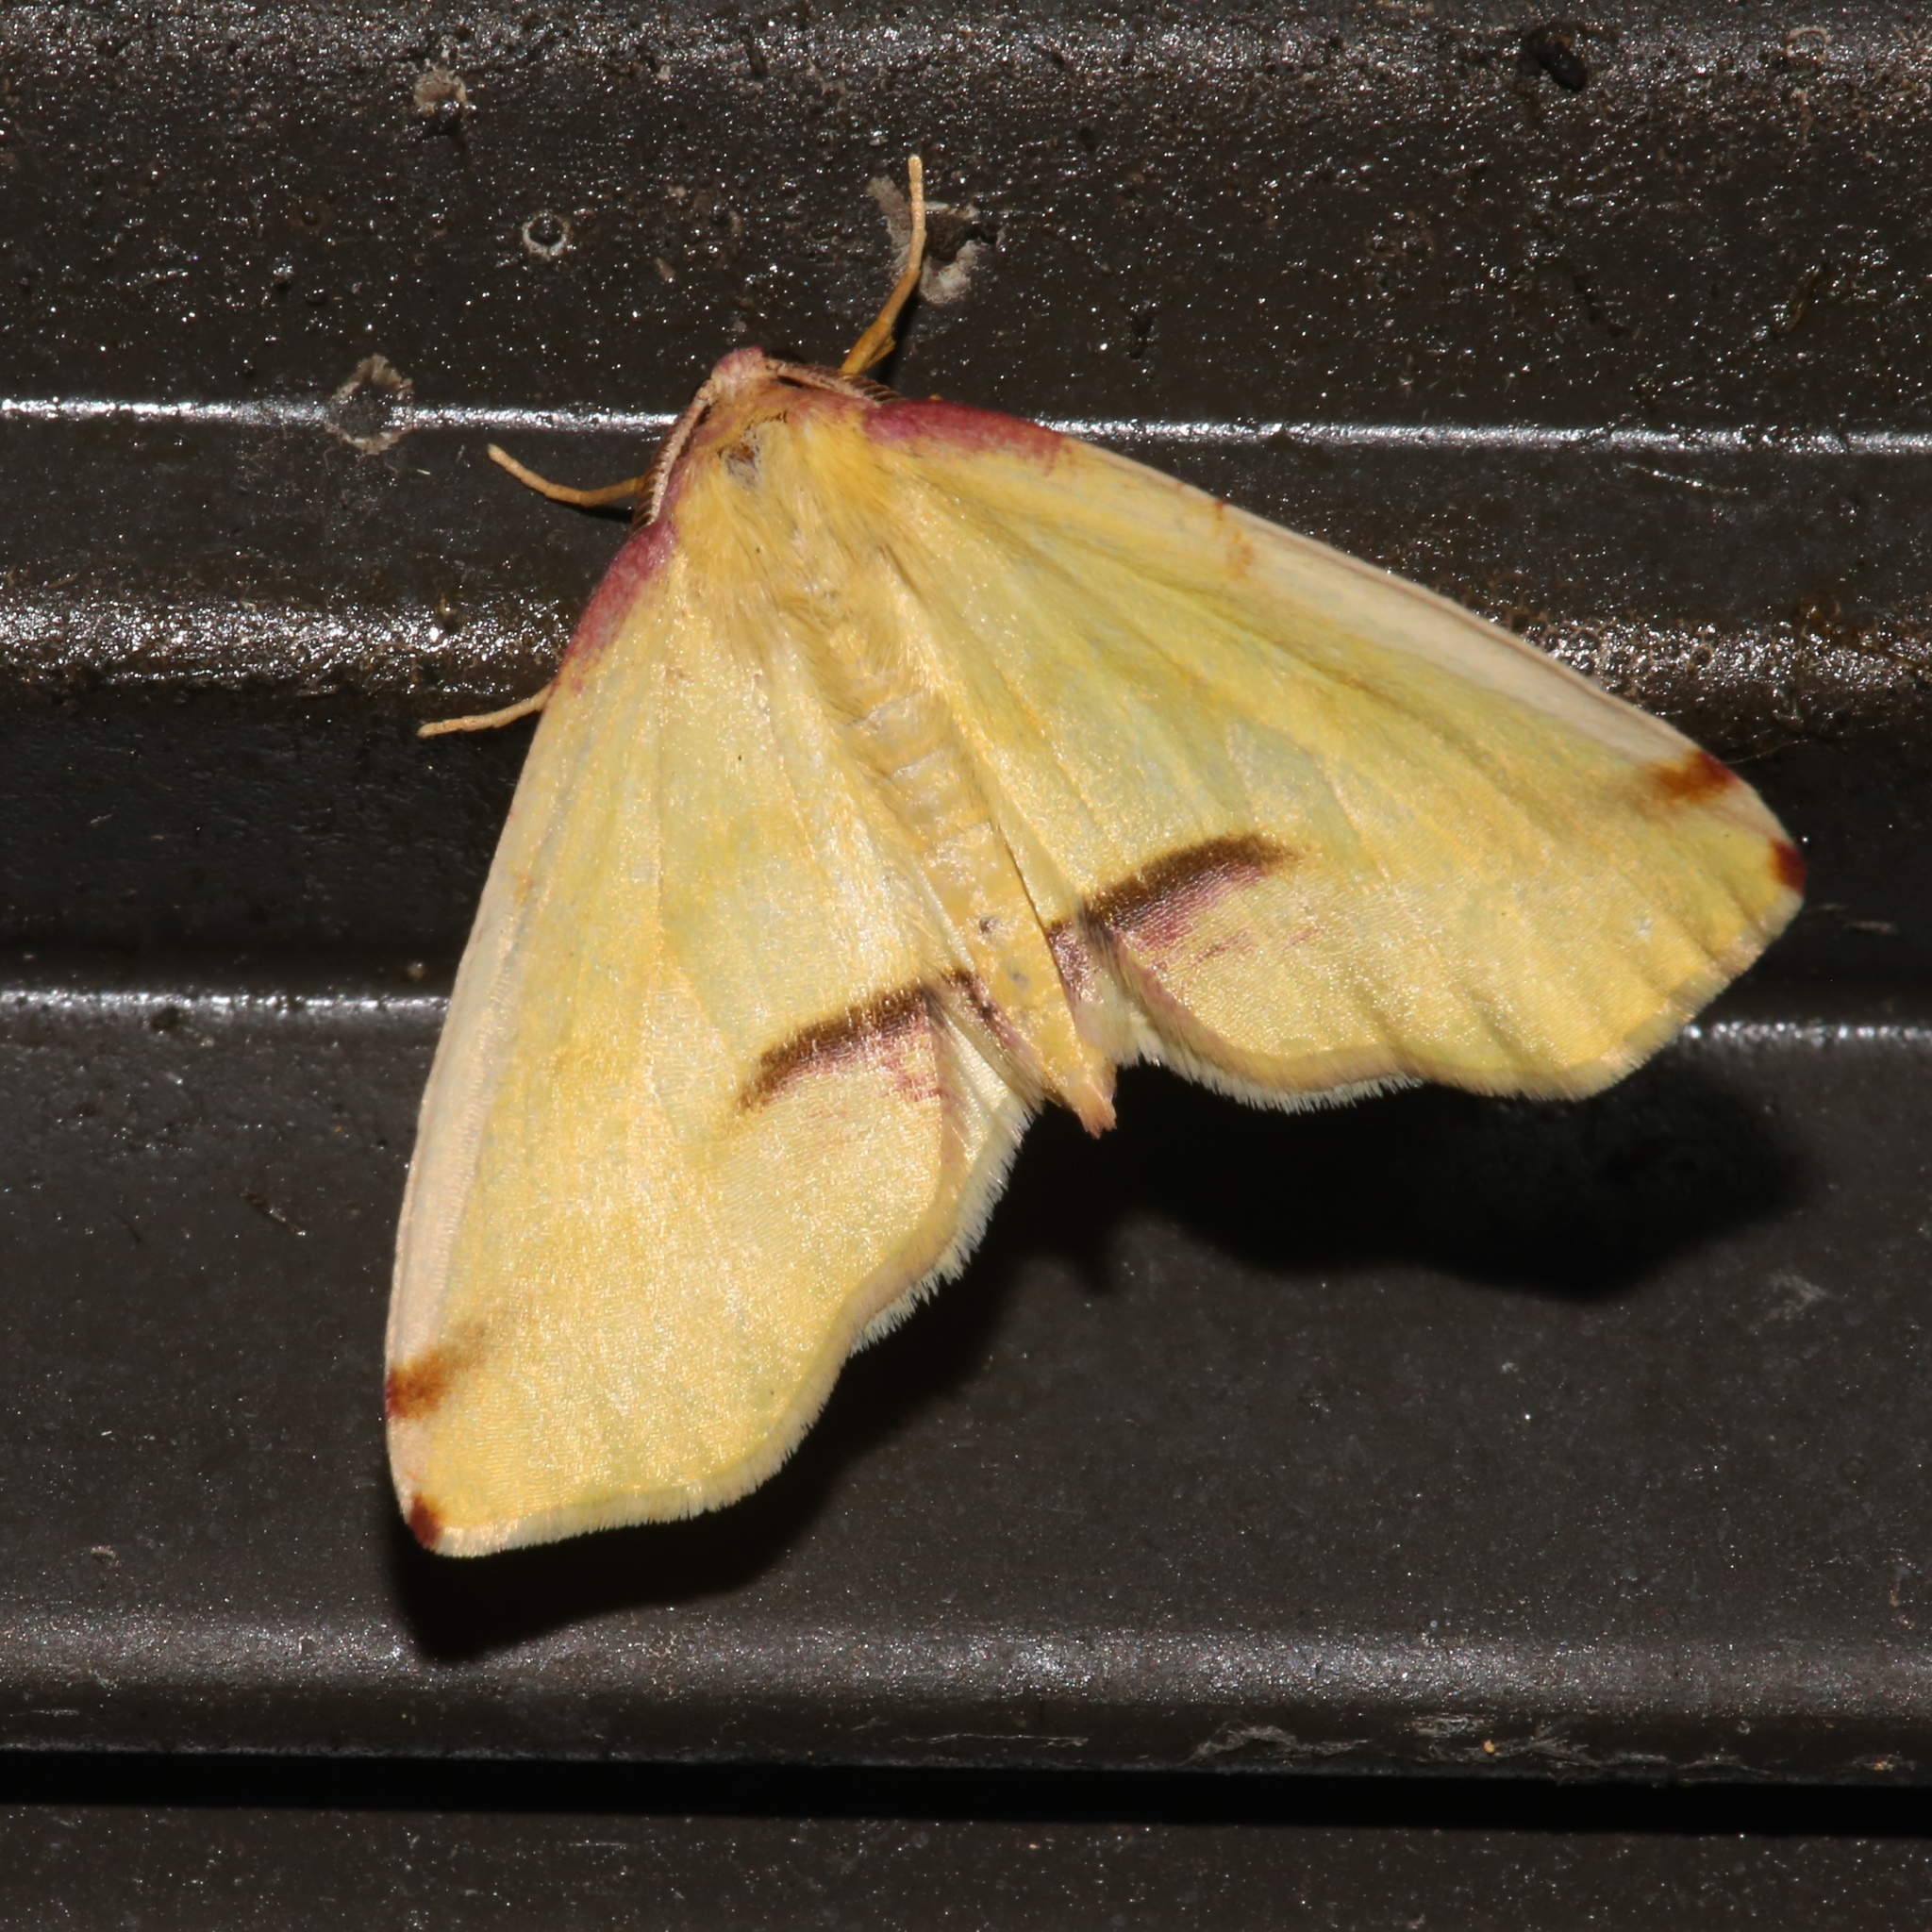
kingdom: Animalia
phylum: Arthropoda
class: Insecta
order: Lepidoptera
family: Geometridae
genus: Plagodis
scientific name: Plagodis serinaria
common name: Lemon plagodis
